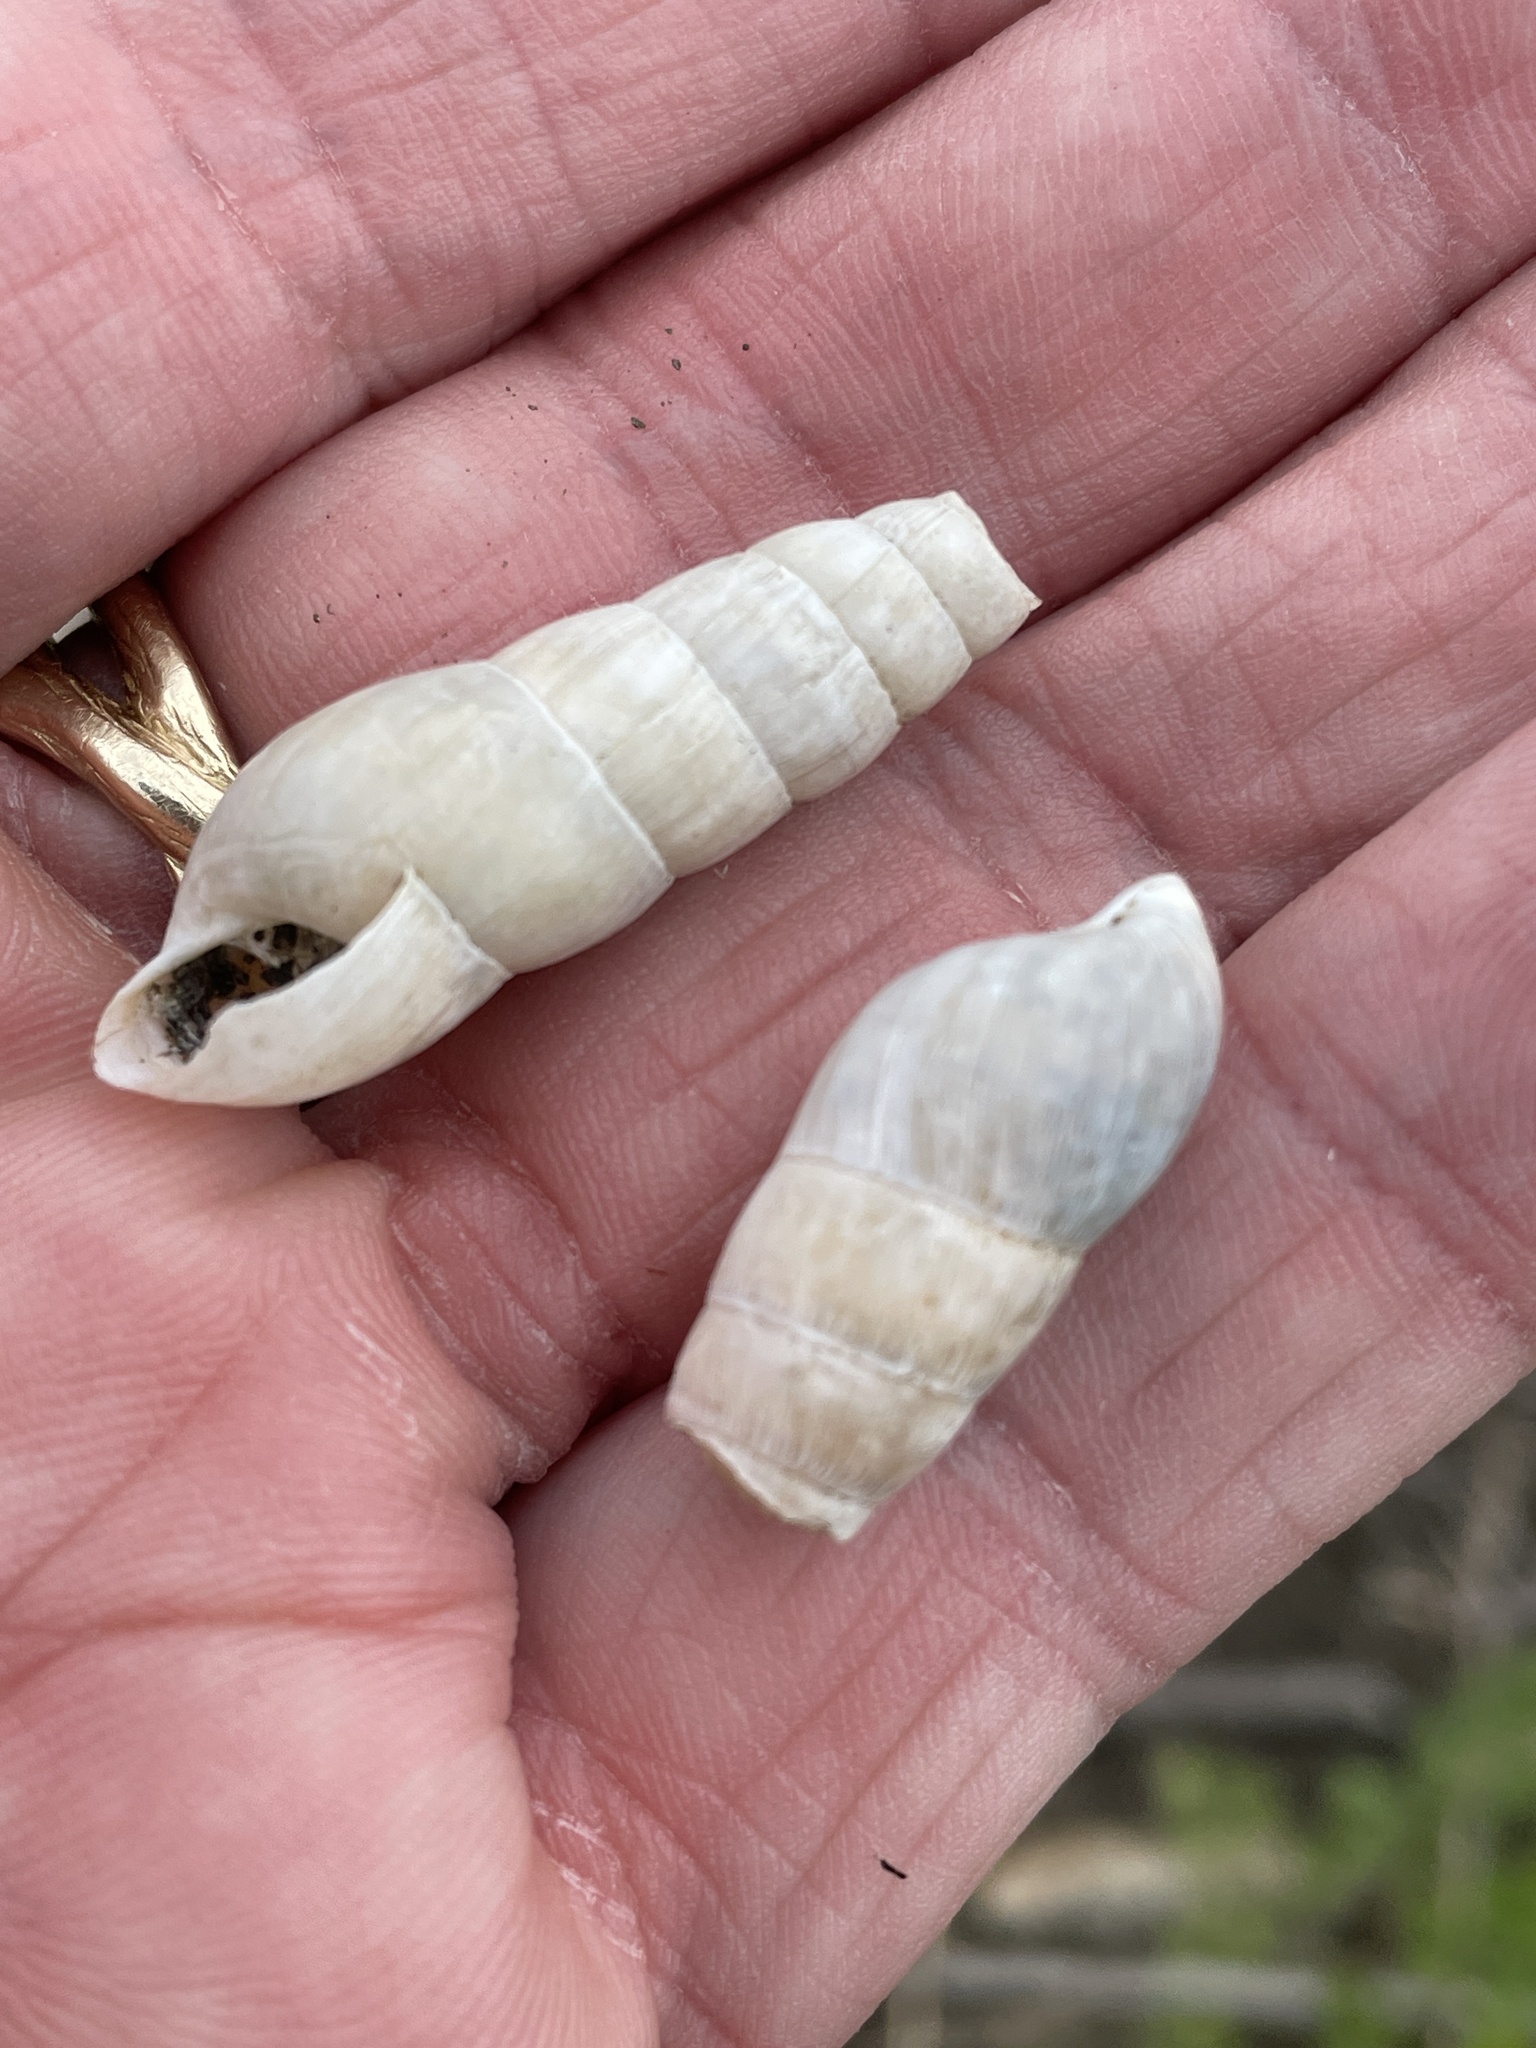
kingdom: Animalia
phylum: Mollusca
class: Gastropoda
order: Stylommatophora
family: Achatinidae
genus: Rumina
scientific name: Rumina decollata
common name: Decollate snail
